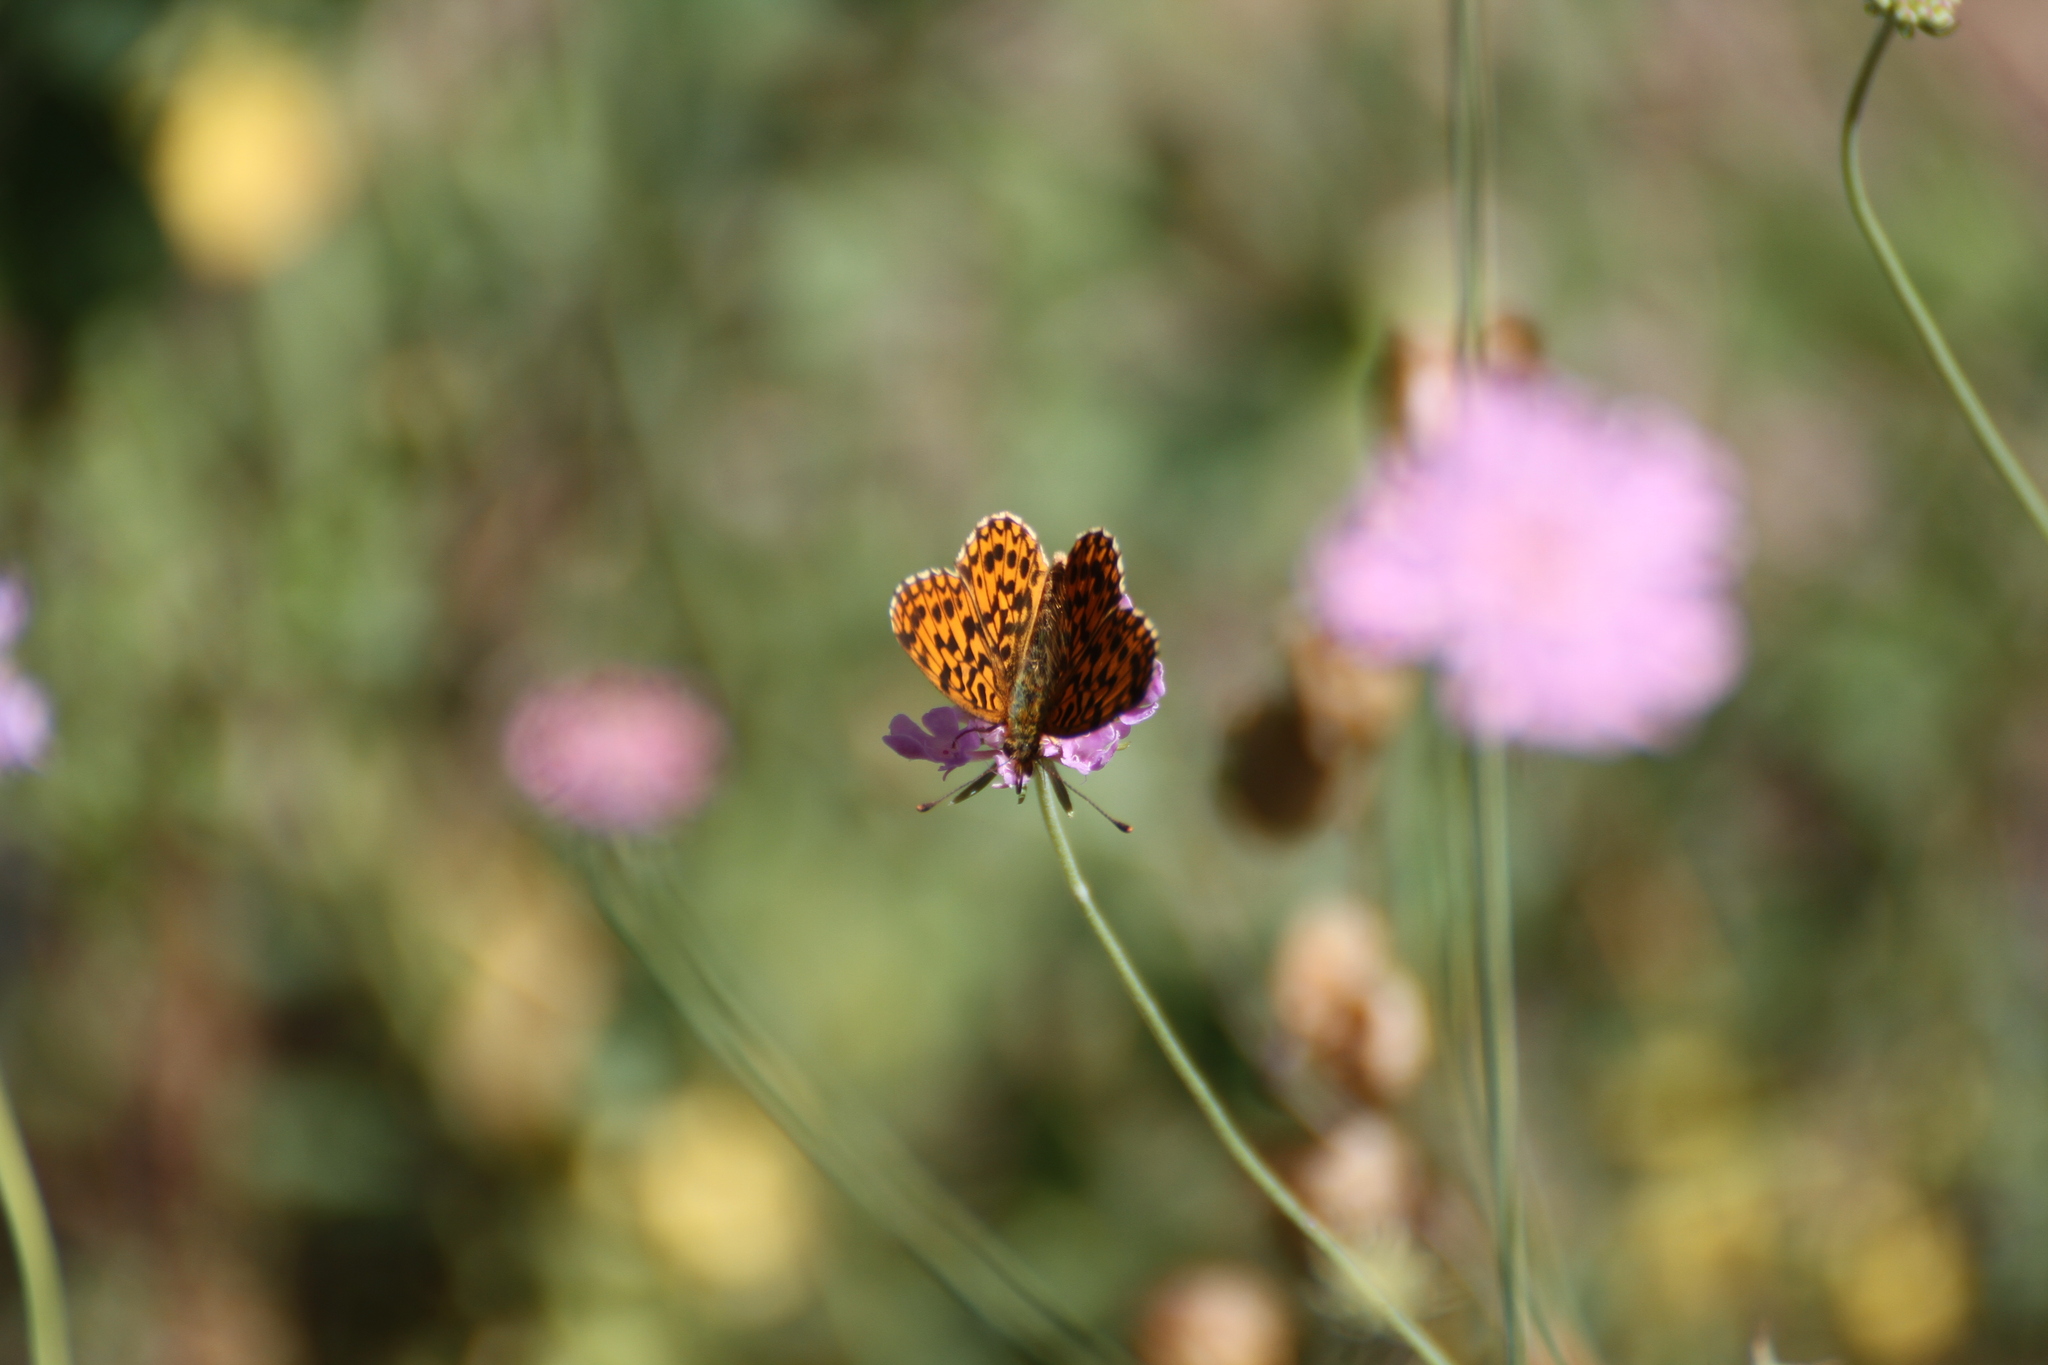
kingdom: Animalia
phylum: Arthropoda
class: Insecta
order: Lepidoptera
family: Nymphalidae
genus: Boloria
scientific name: Boloria dia
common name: Weaver's fritillary
